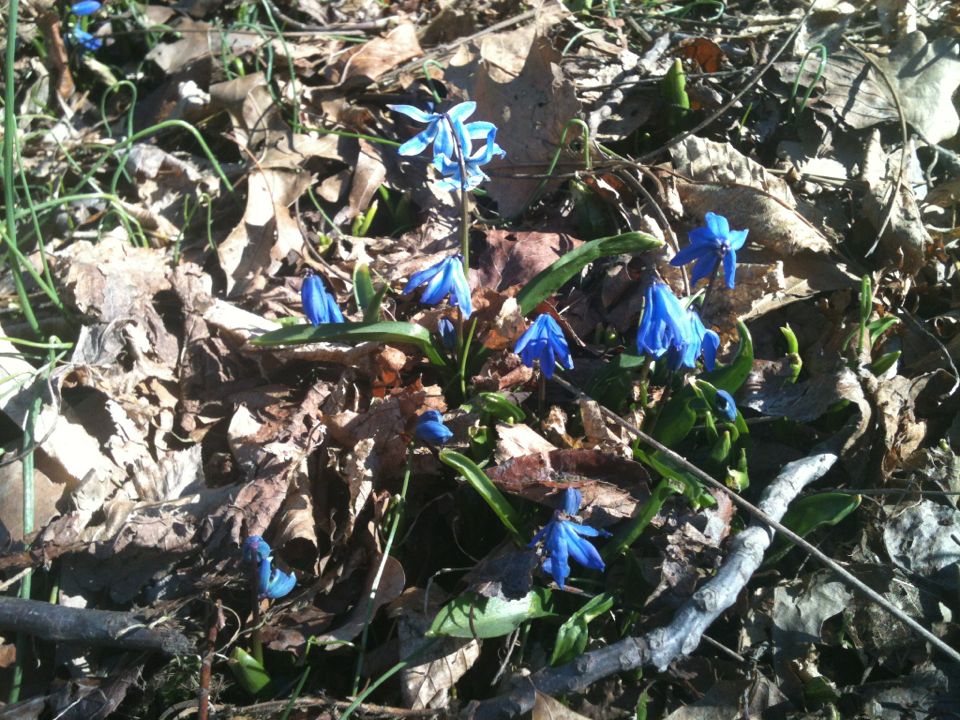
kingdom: Plantae
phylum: Tracheophyta
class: Liliopsida
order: Asparagales
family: Asparagaceae
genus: Scilla
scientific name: Scilla siberica
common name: Siberian squill
